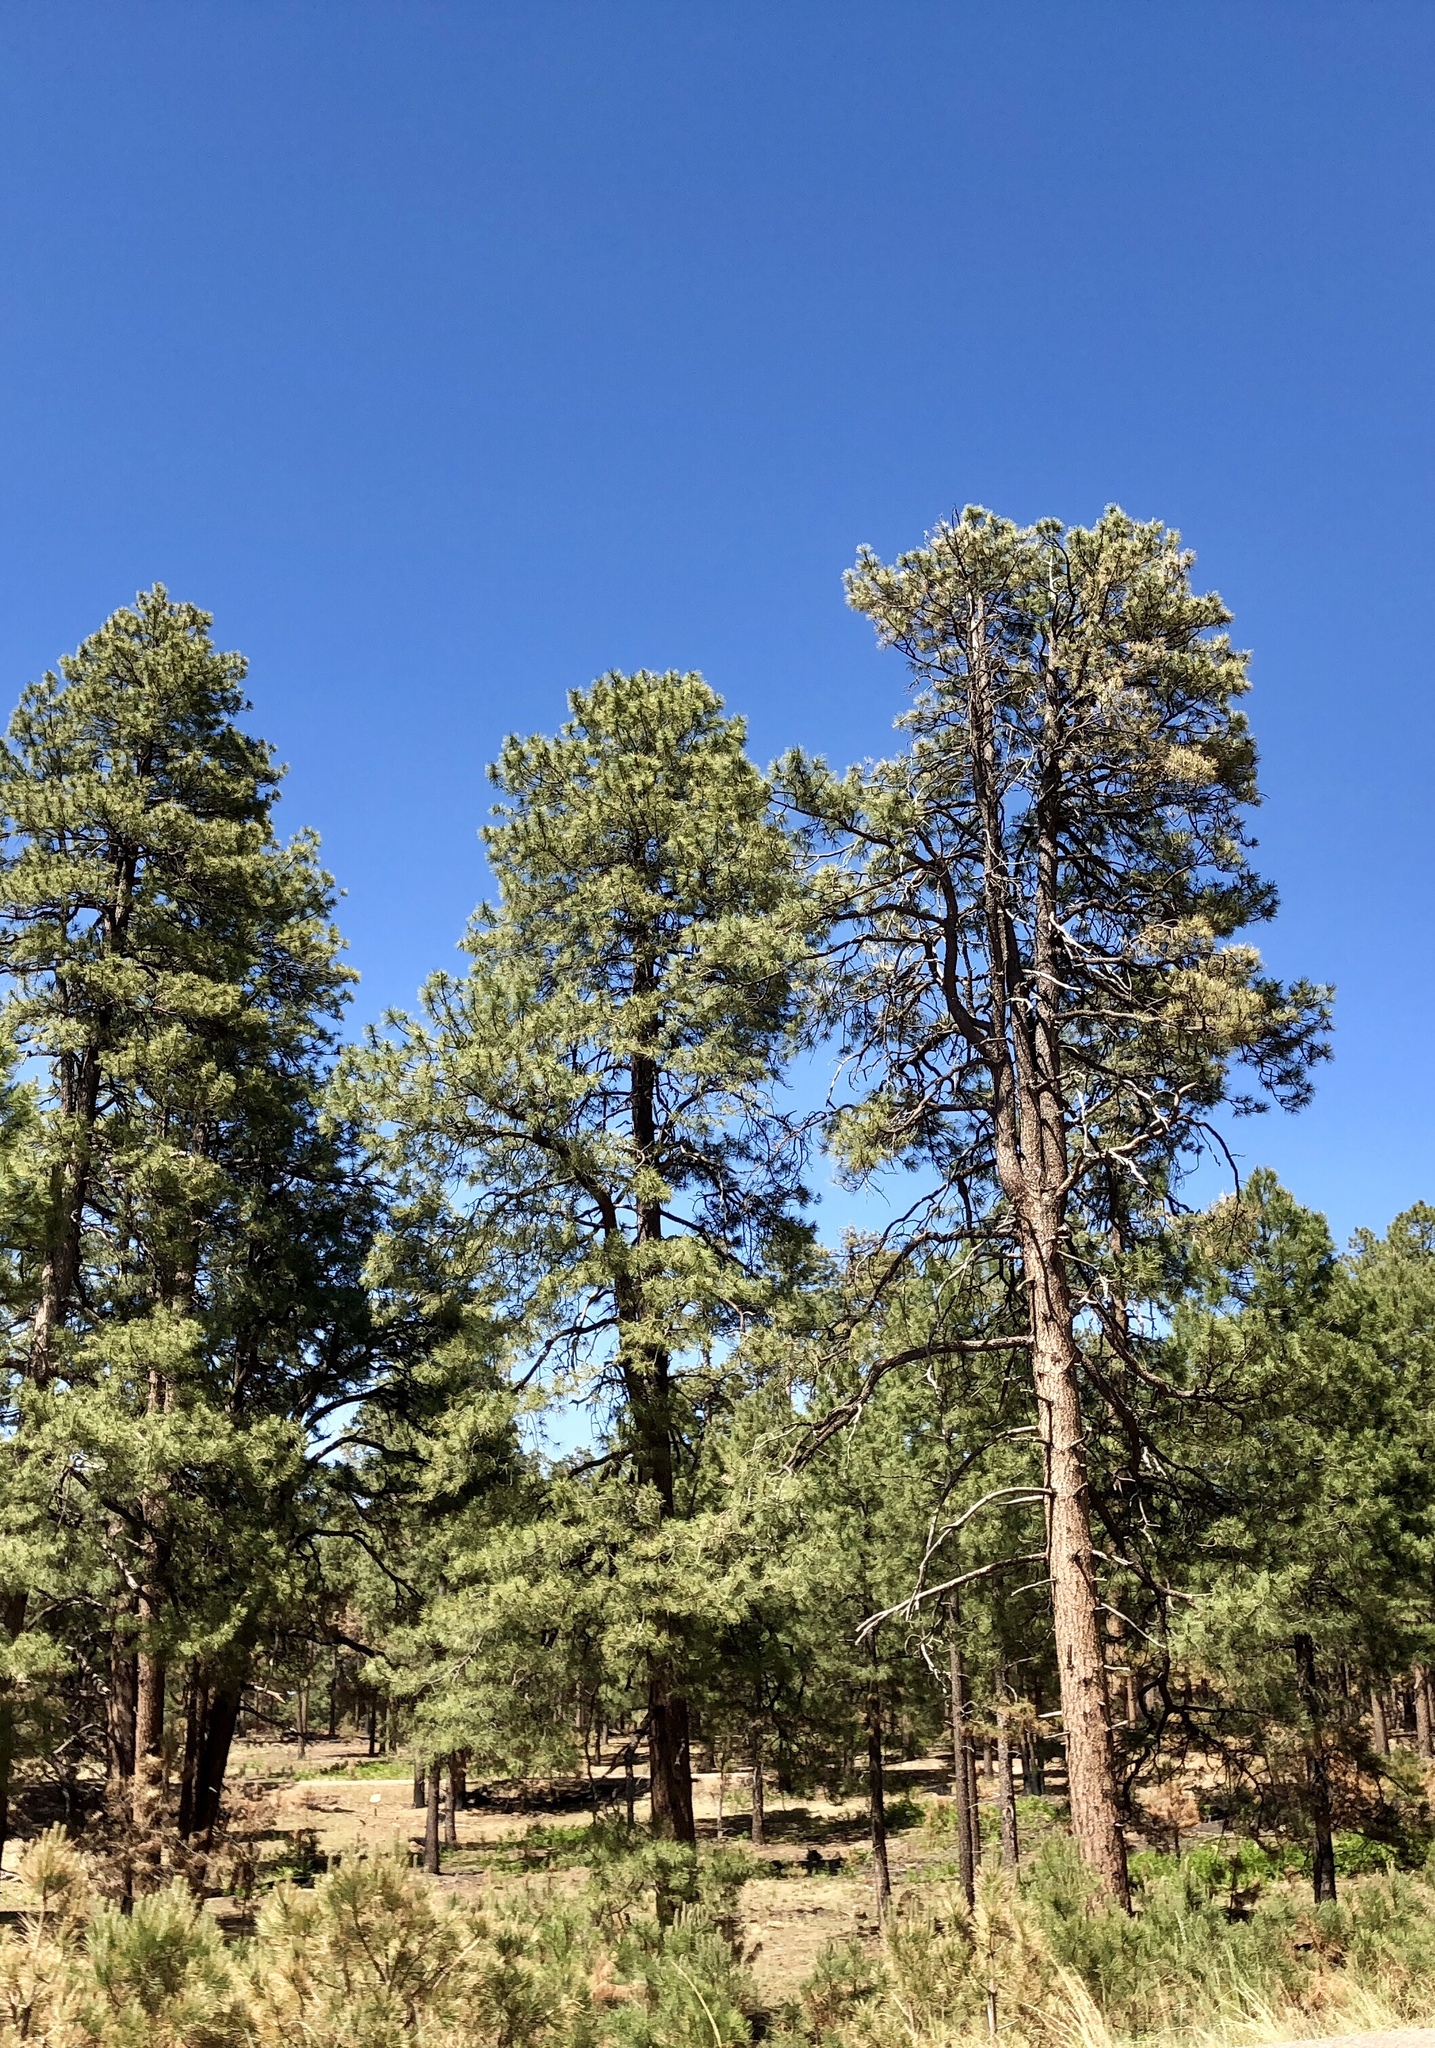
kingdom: Plantae
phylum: Tracheophyta
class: Pinopsida
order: Pinales
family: Pinaceae
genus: Pinus
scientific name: Pinus ponderosa
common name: Western yellow-pine
